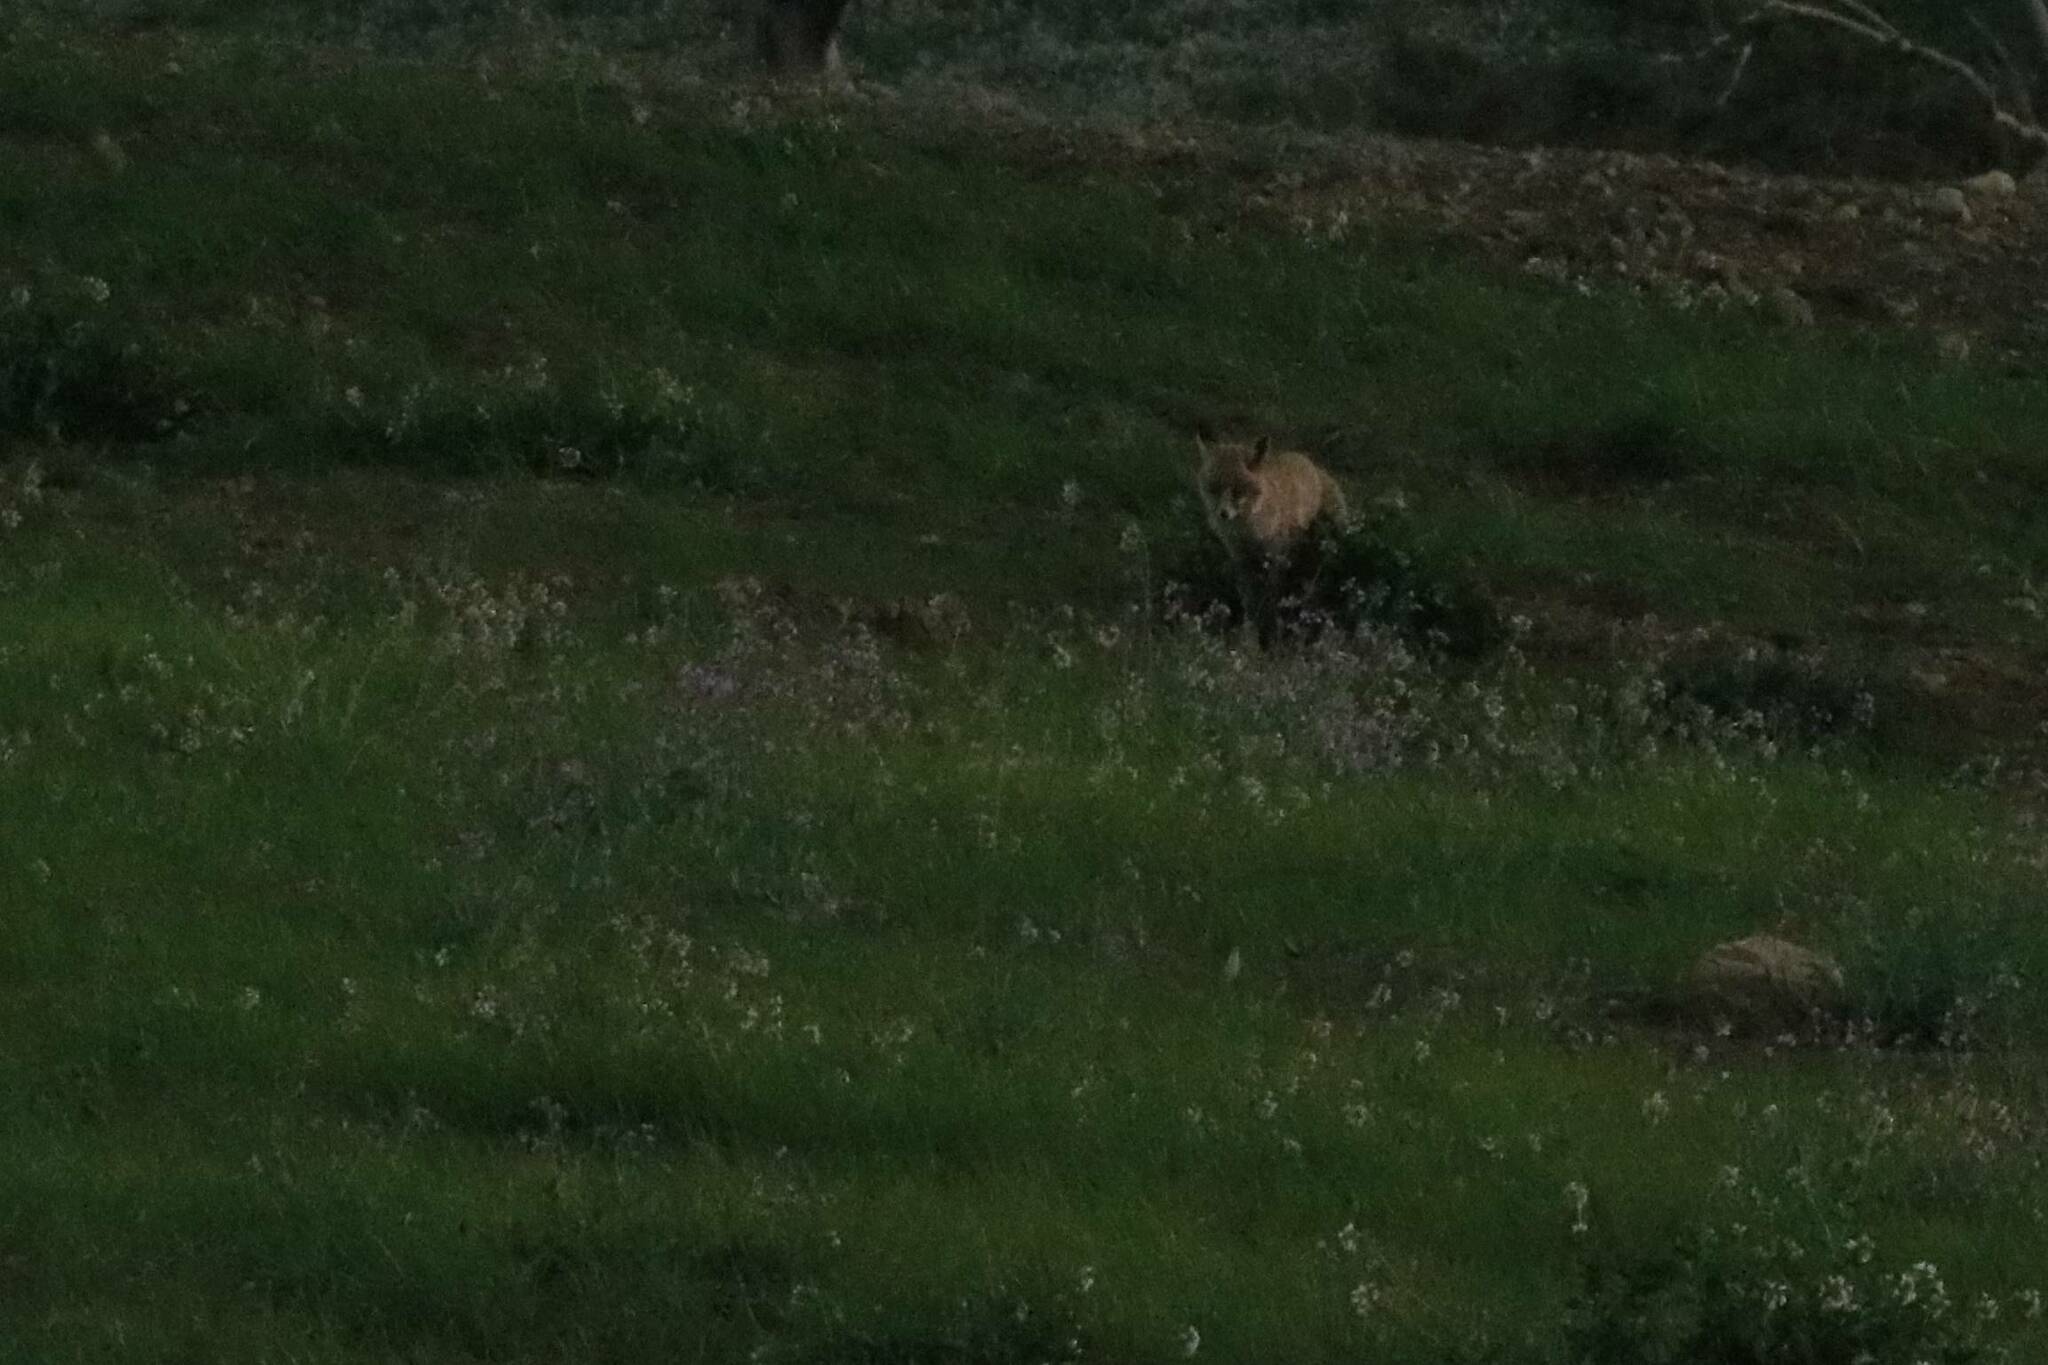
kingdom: Animalia
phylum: Chordata
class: Mammalia
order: Carnivora
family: Canidae
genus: Vulpes
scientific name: Vulpes vulpes
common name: Red fox
